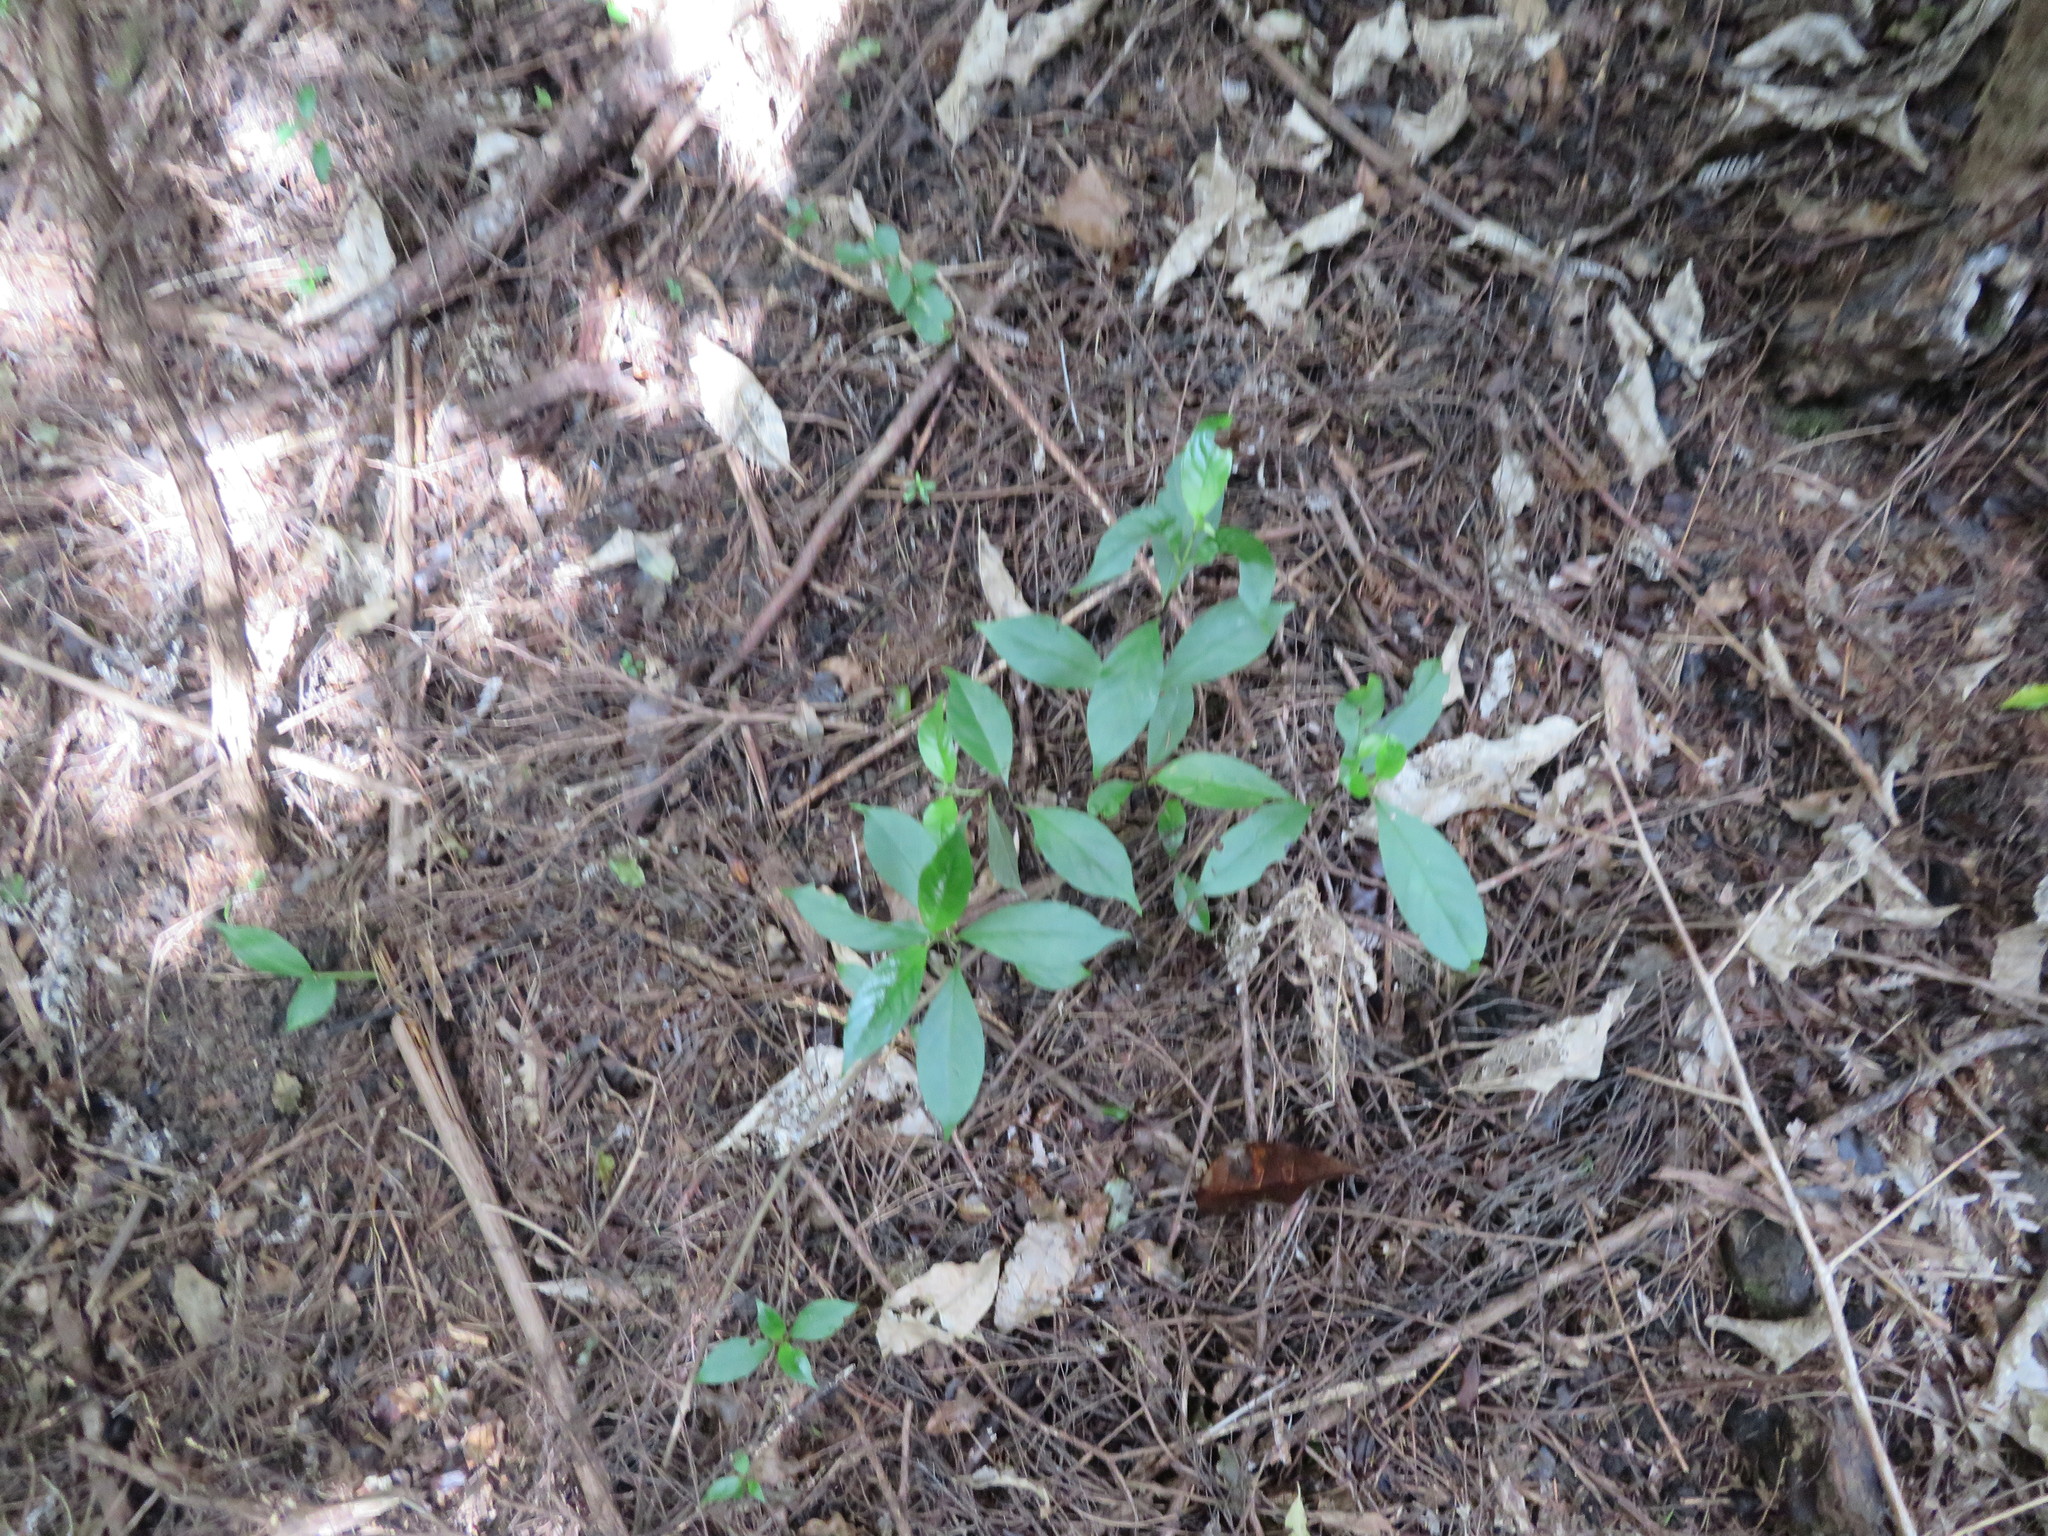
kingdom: Plantae
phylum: Tracheophyta
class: Magnoliopsida
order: Gentianales
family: Loganiaceae
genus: Geniostoma
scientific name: Geniostoma ligustrifolium
